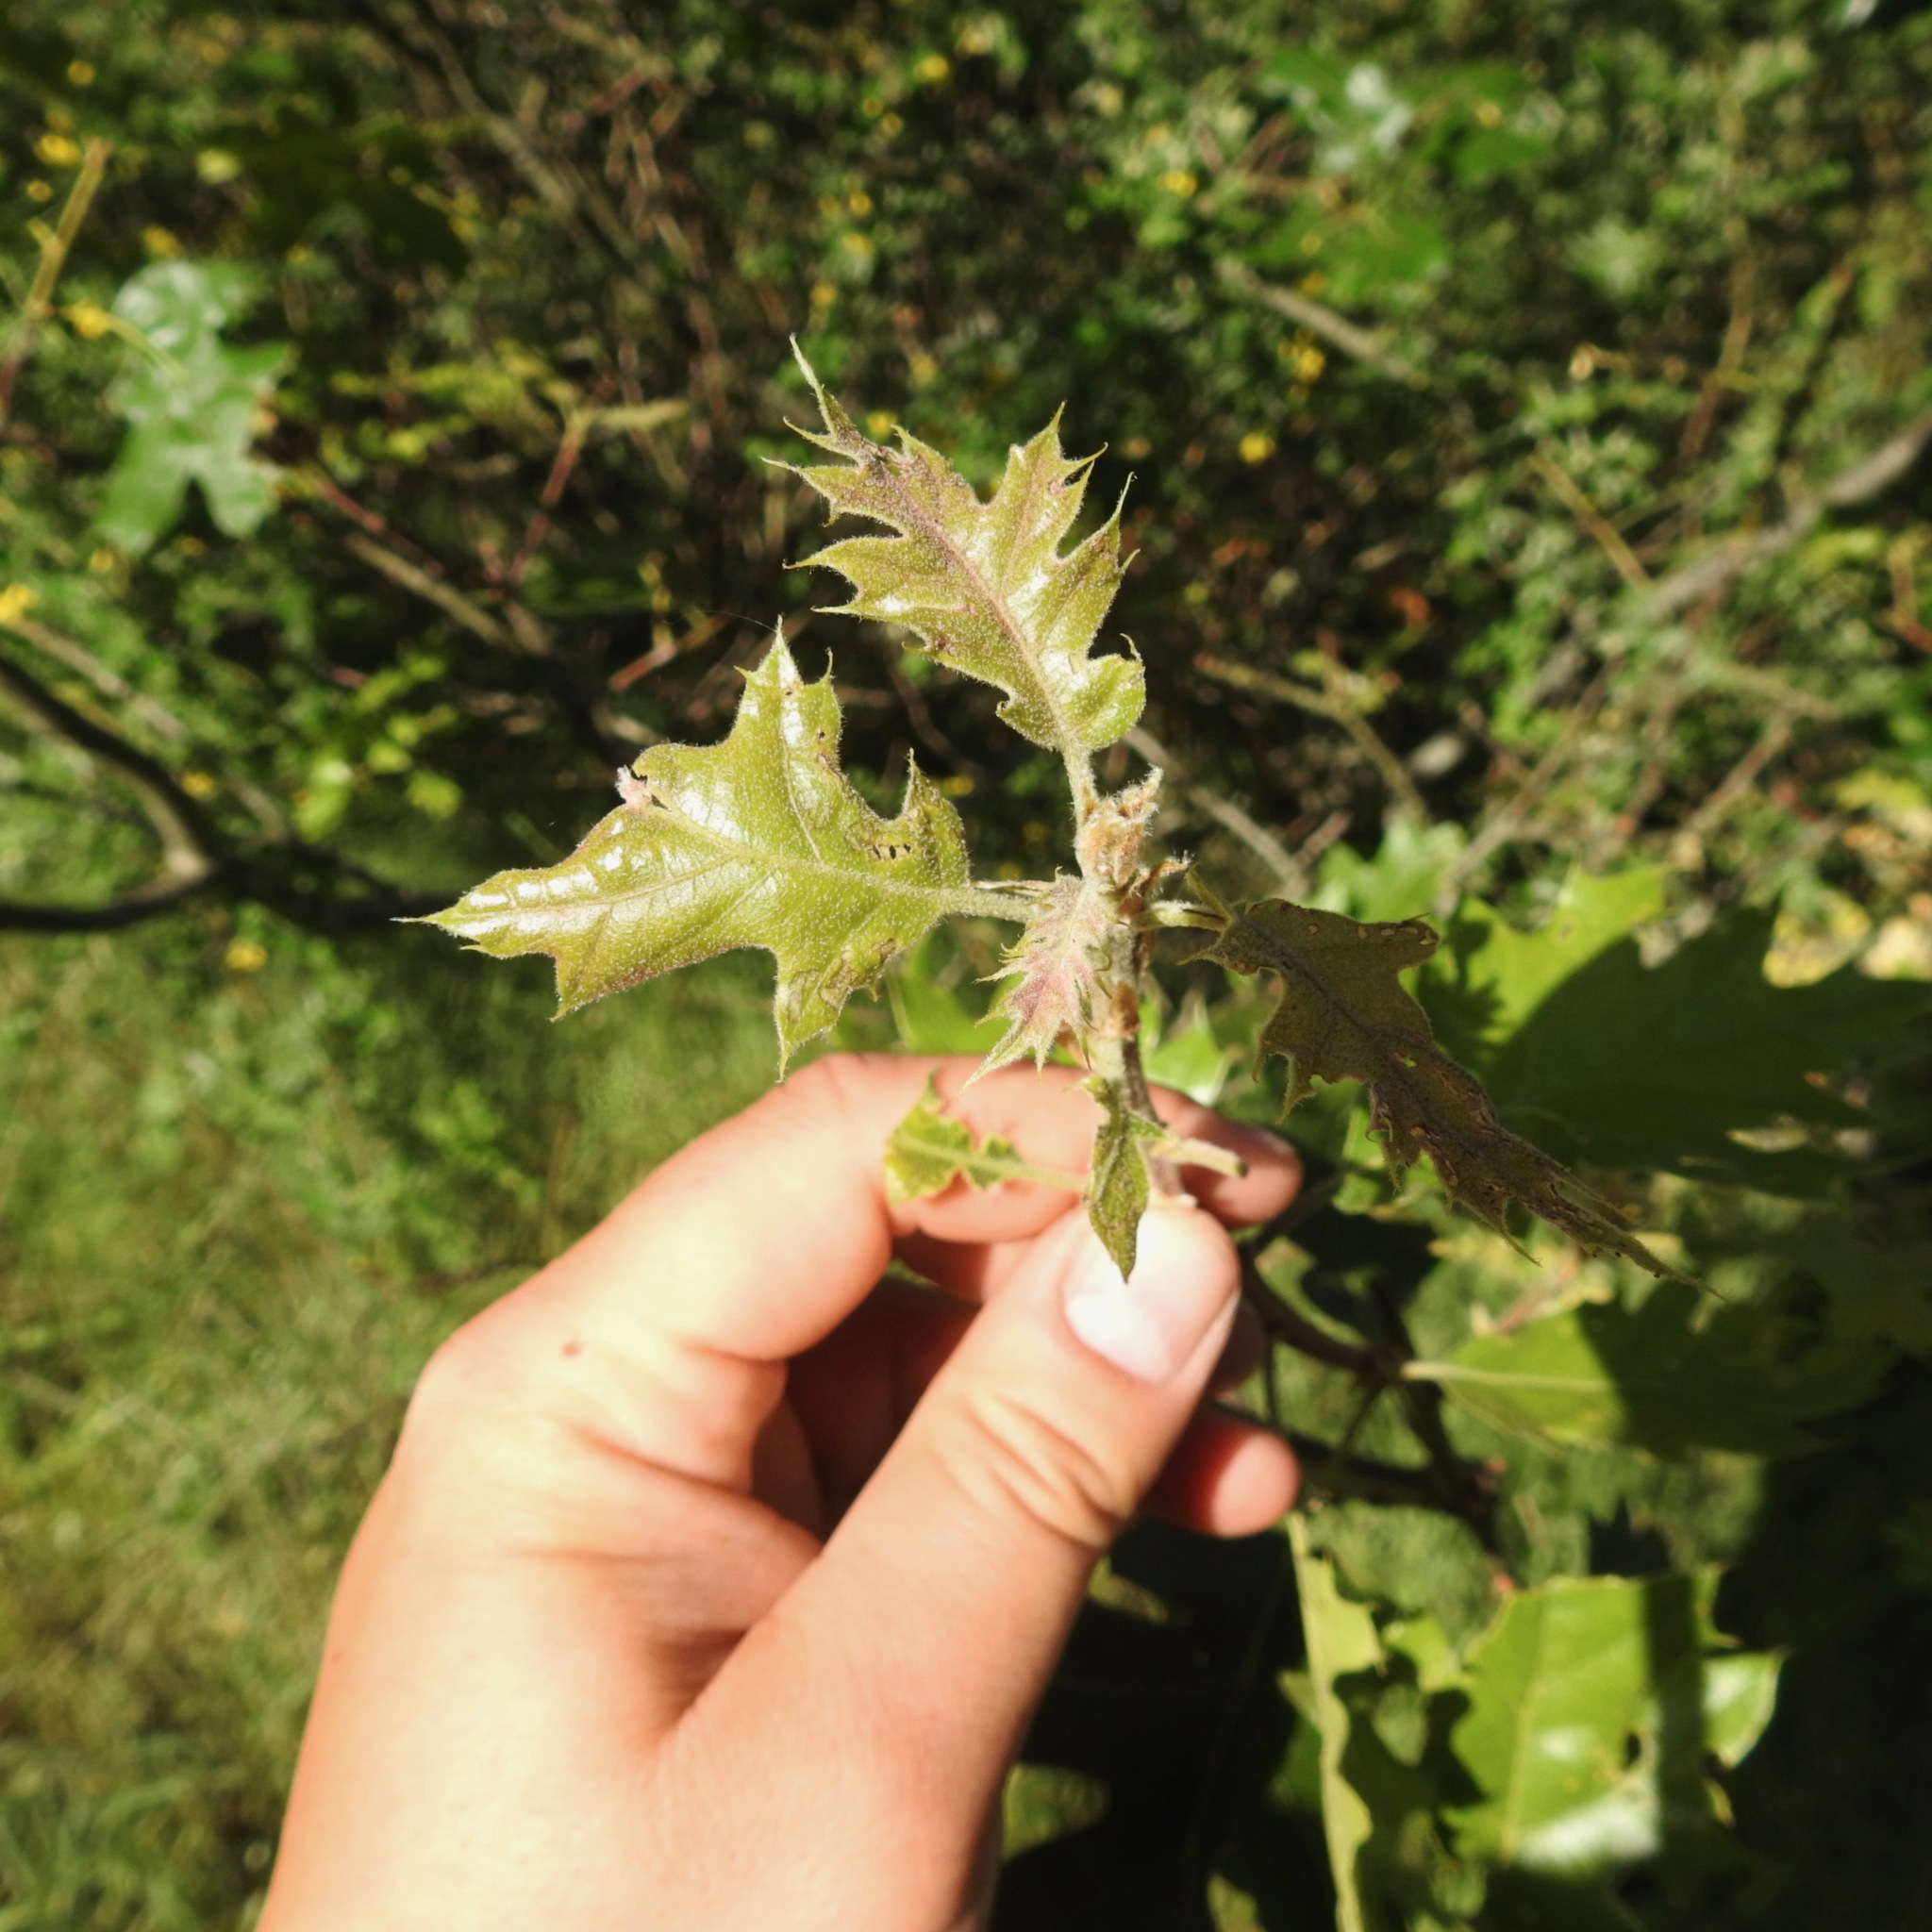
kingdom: Plantae
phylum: Tracheophyta
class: Magnoliopsida
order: Fagales
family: Fagaceae
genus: Quercus
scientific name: Quercus kelloggii
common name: California black oak
